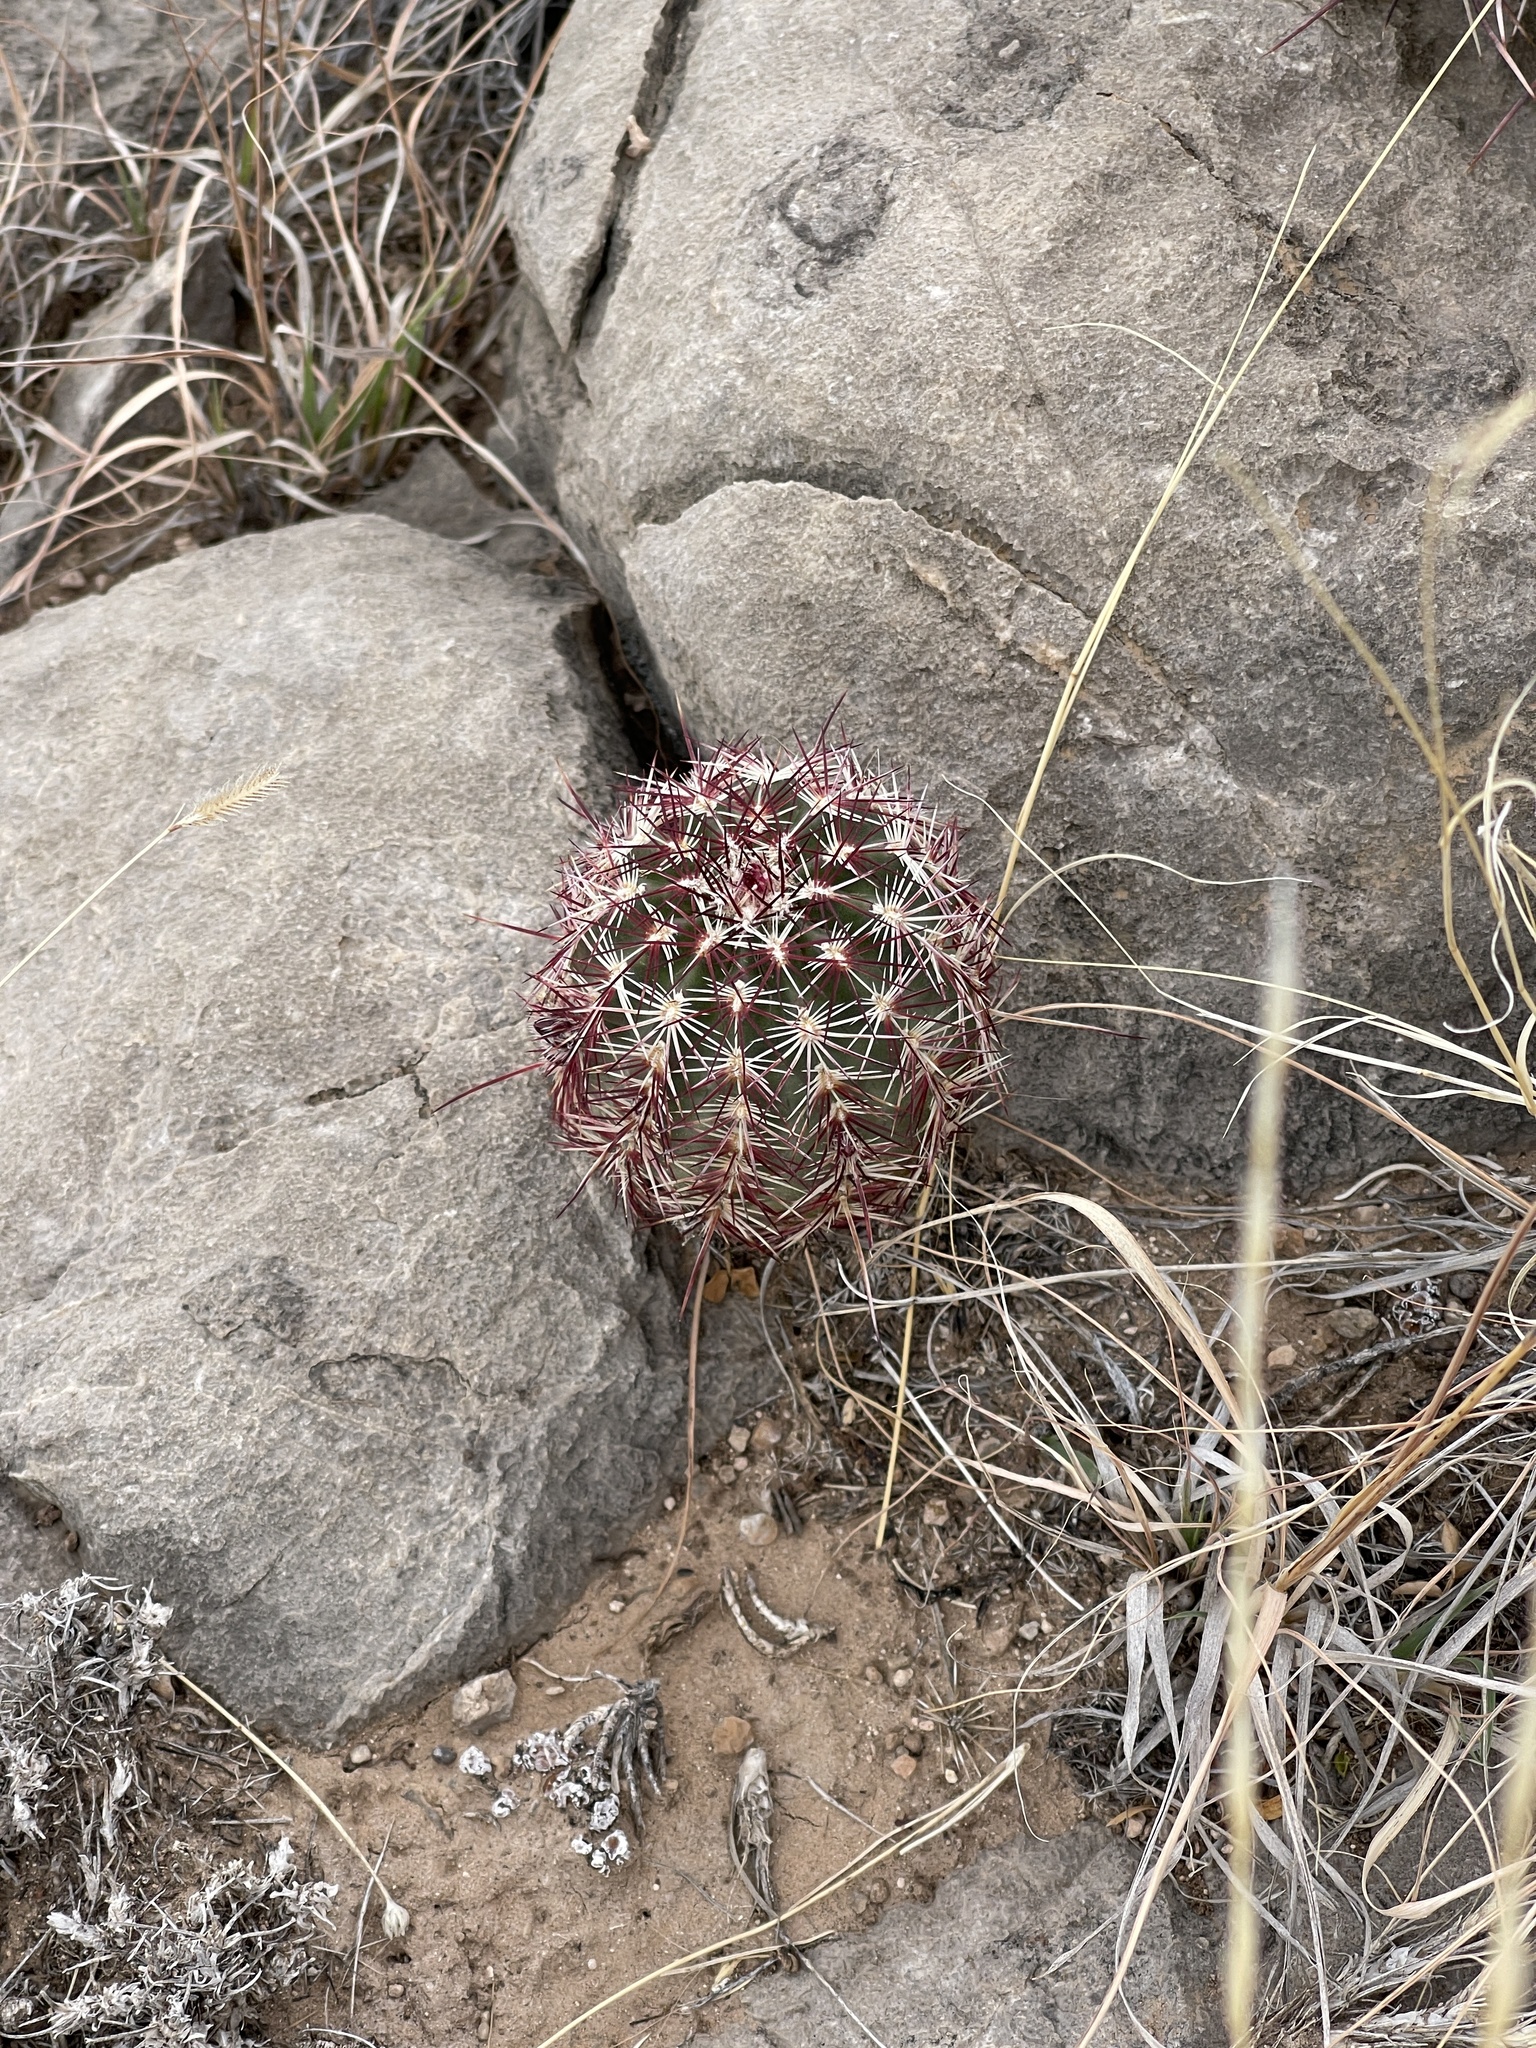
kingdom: Plantae
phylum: Tracheophyta
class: Magnoliopsida
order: Caryophyllales
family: Cactaceae
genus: Echinocereus
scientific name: Echinocereus viridiflorus
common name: Nylon hedgehog cactus
